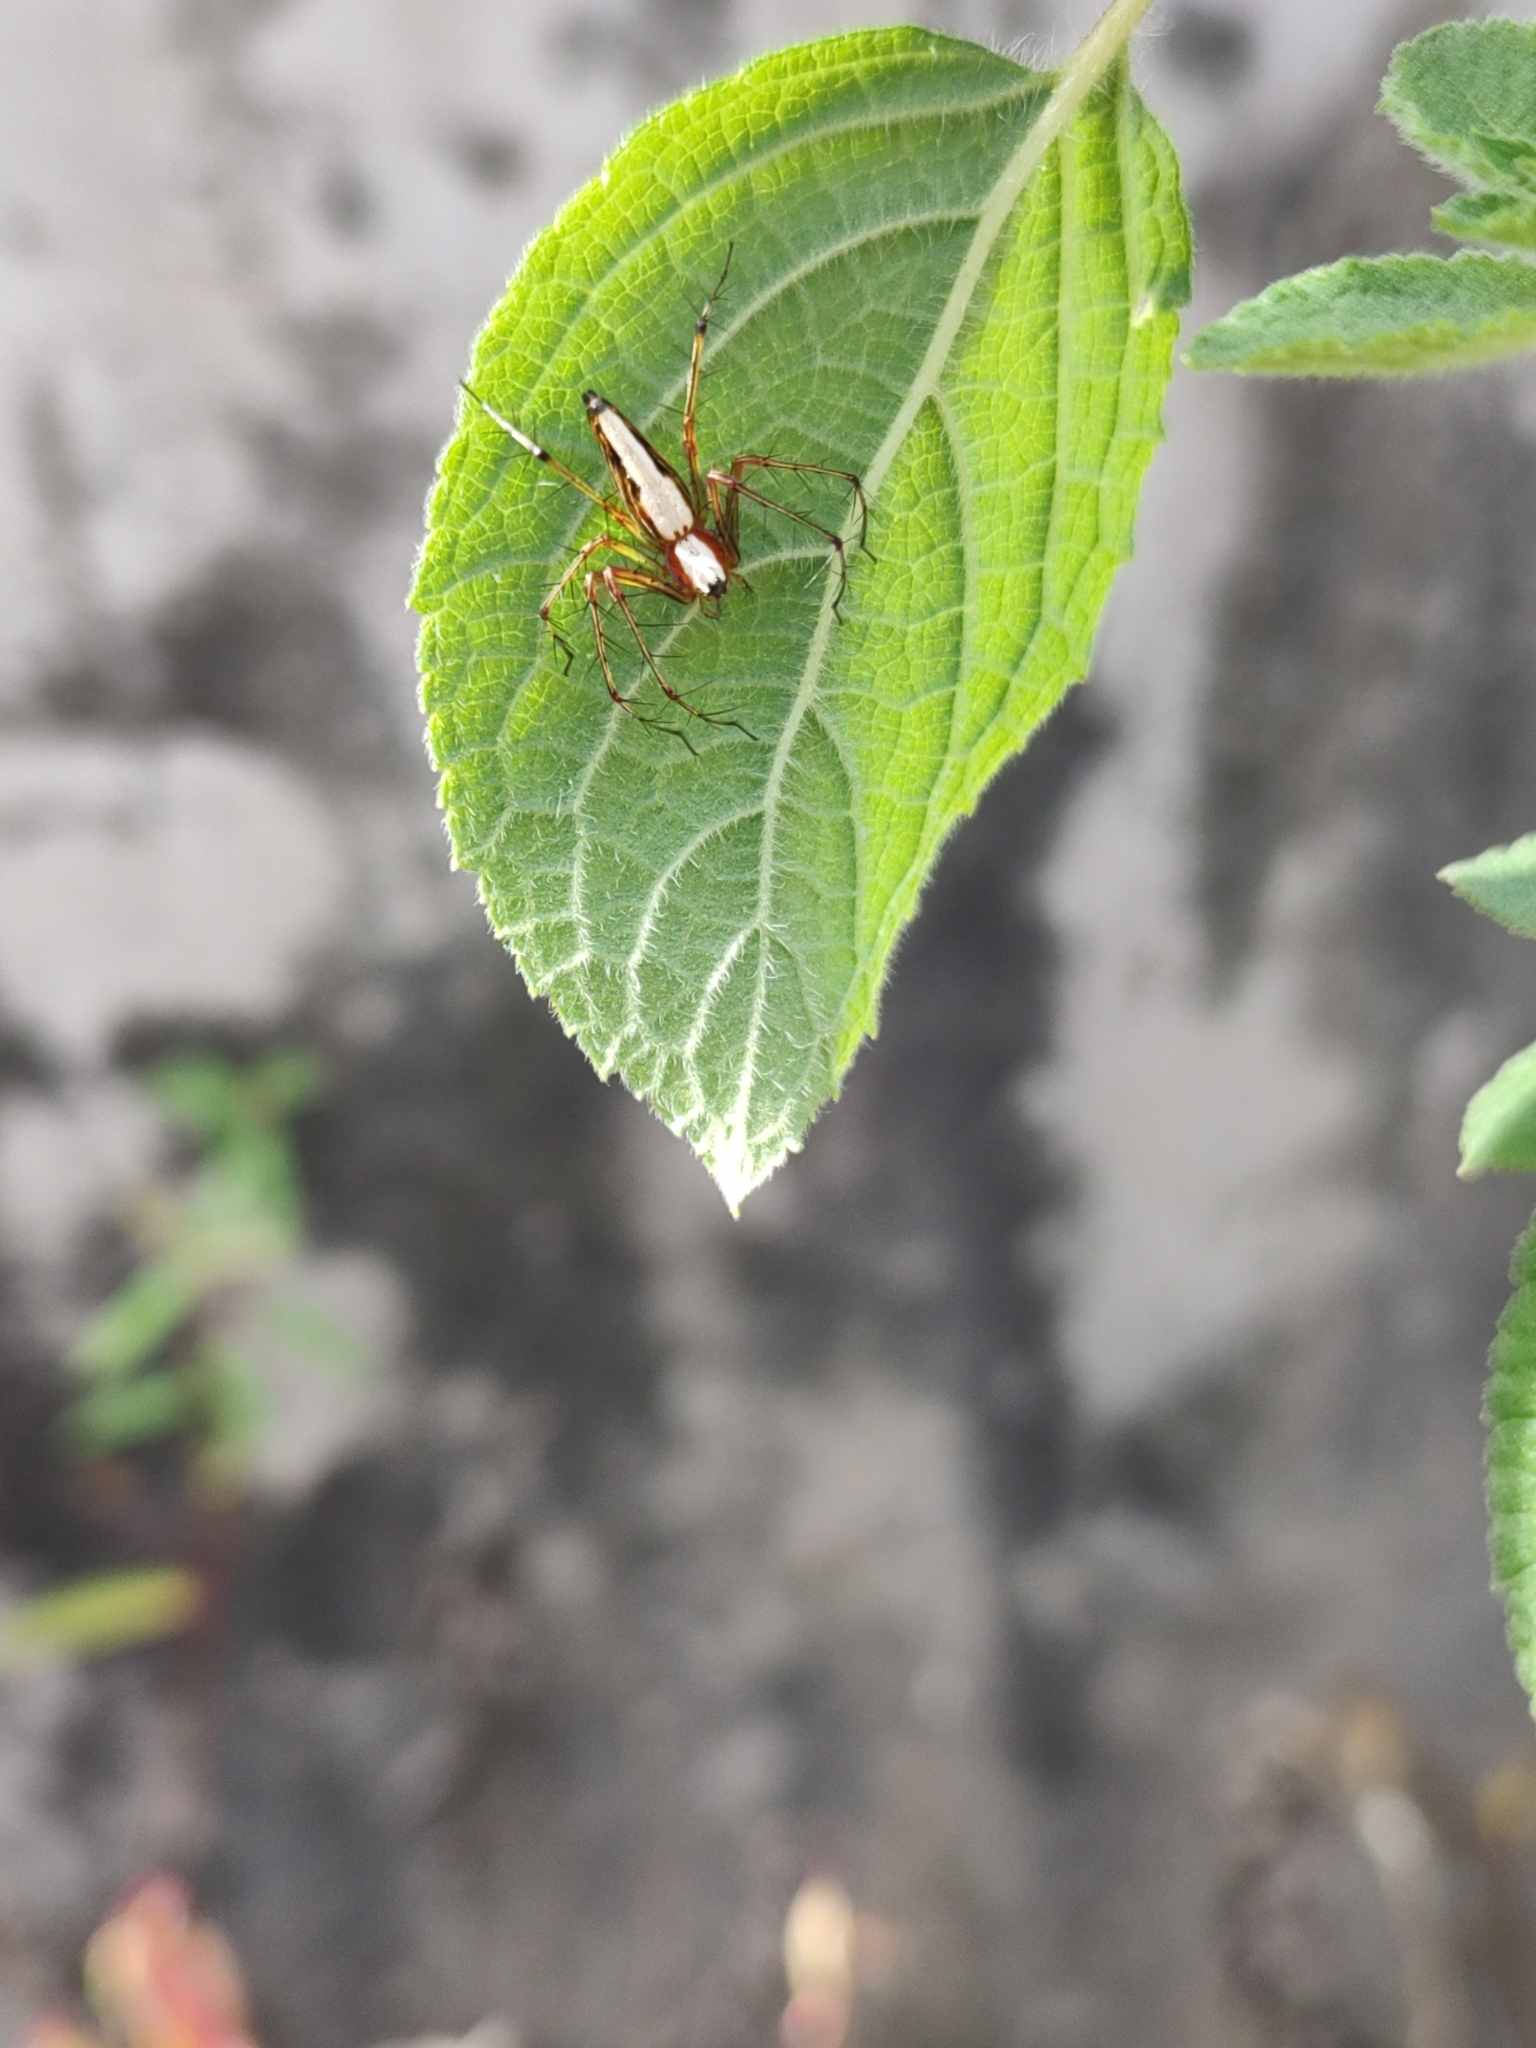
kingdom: Animalia
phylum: Arthropoda
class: Arachnida
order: Araneae
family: Oxyopidae
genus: Oxyopes
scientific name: Oxyopes shweta
